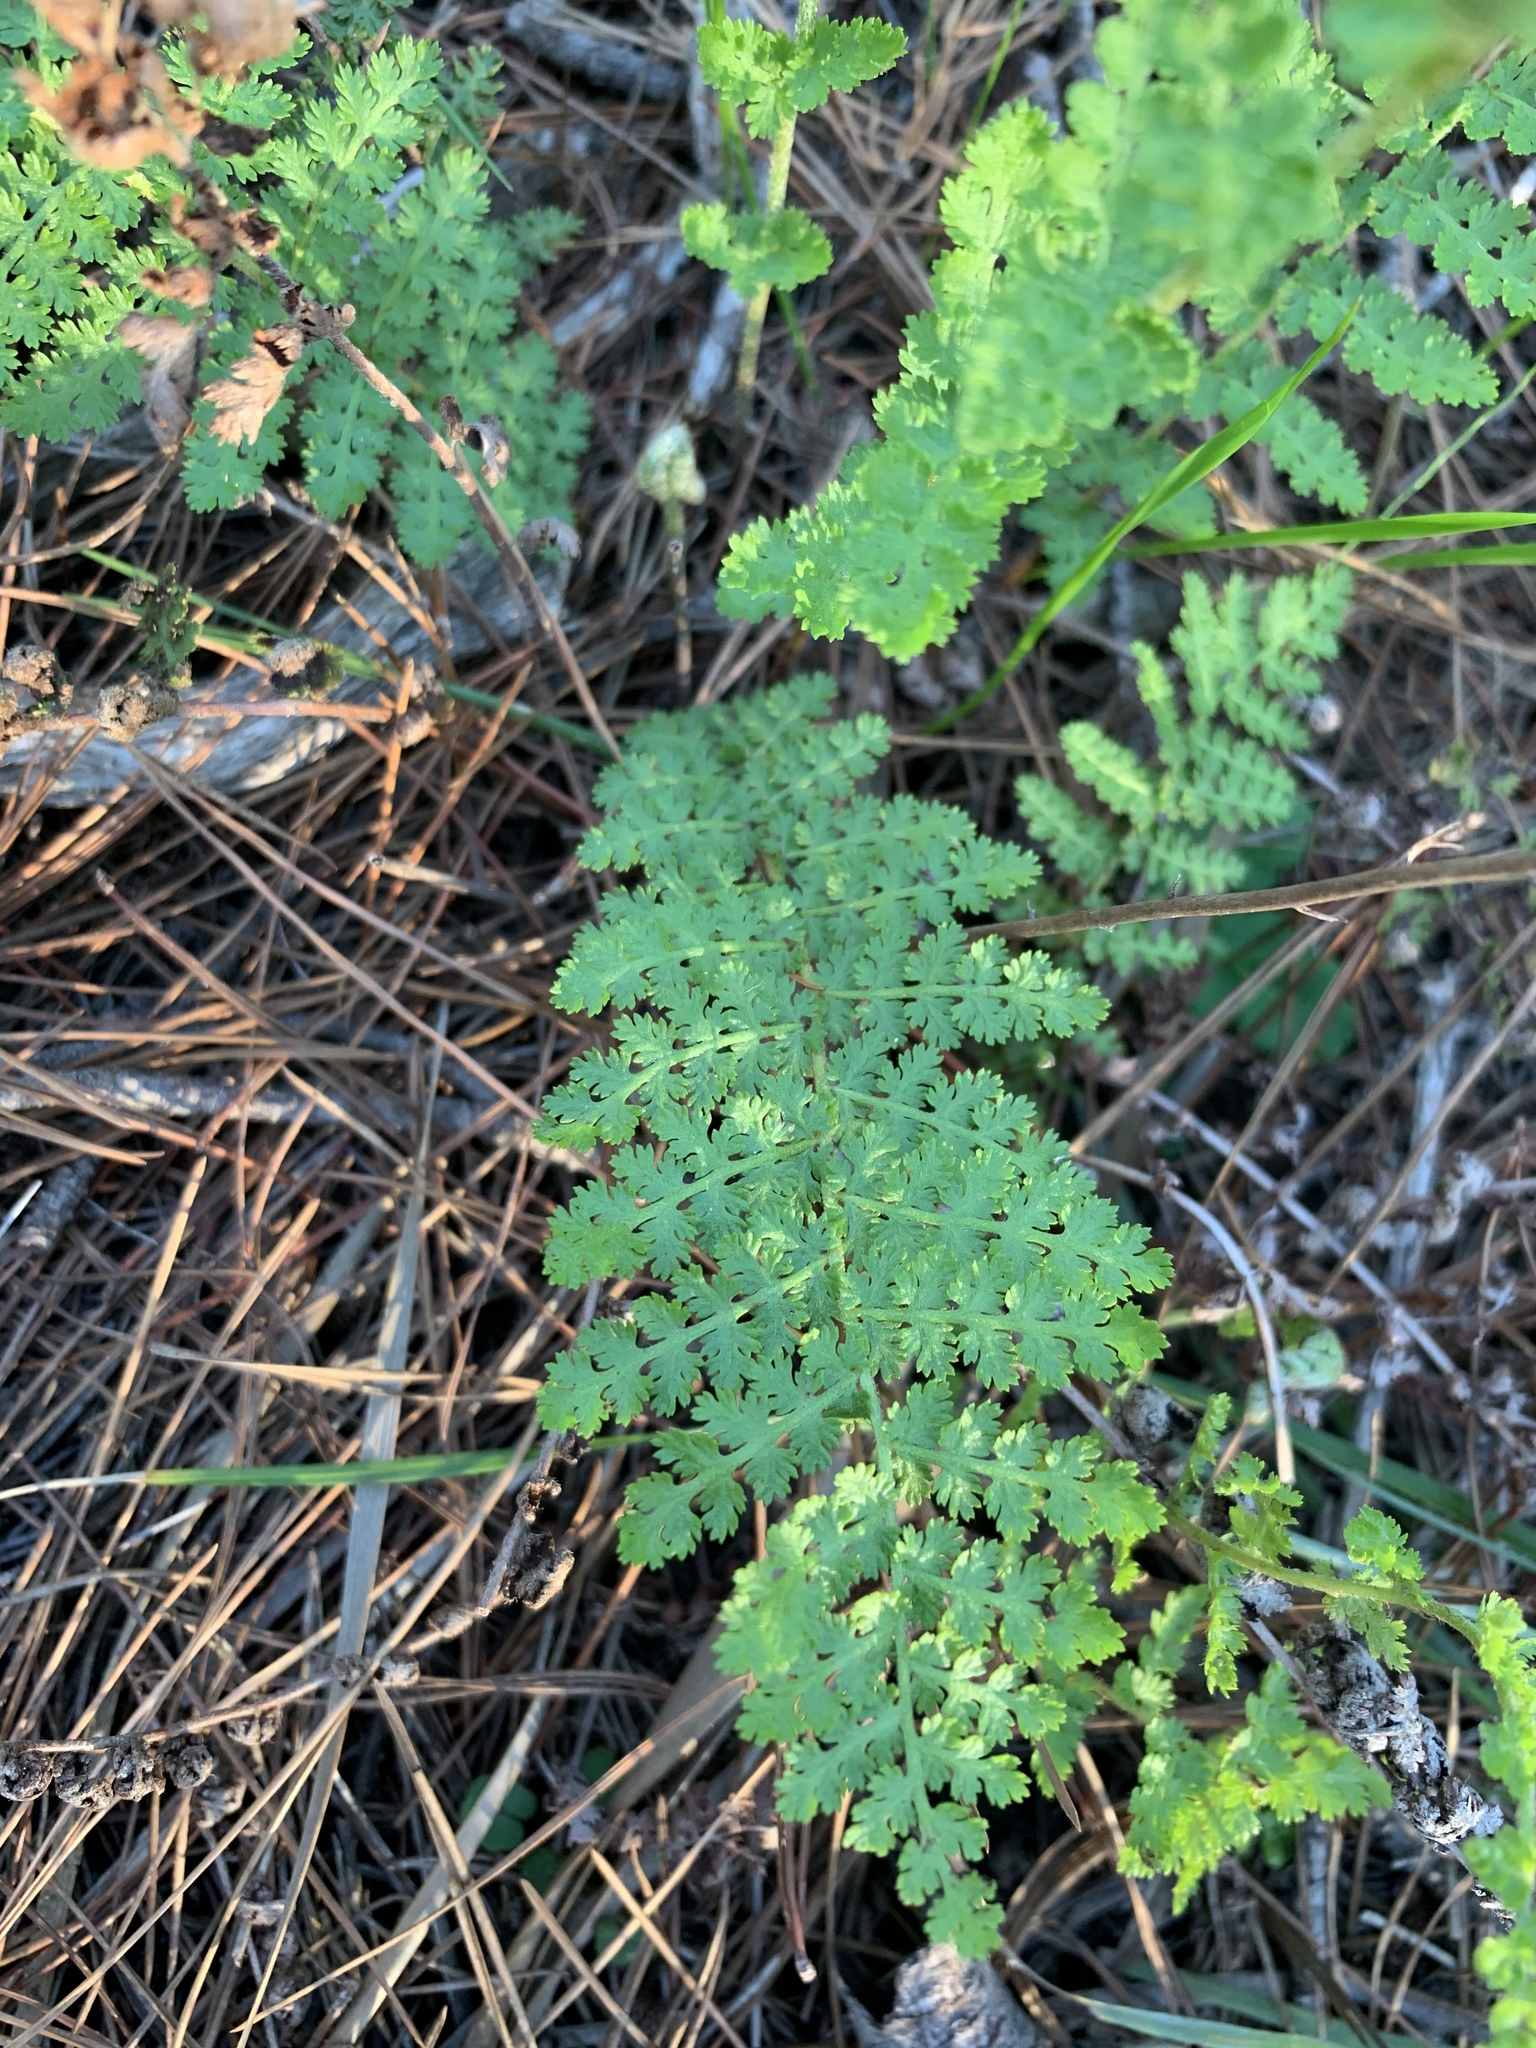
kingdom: Plantae
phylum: Tracheophyta
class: Polypodiopsida
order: Schizaeales
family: Anemiaceae
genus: Anemia
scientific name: Anemia caffrorum
